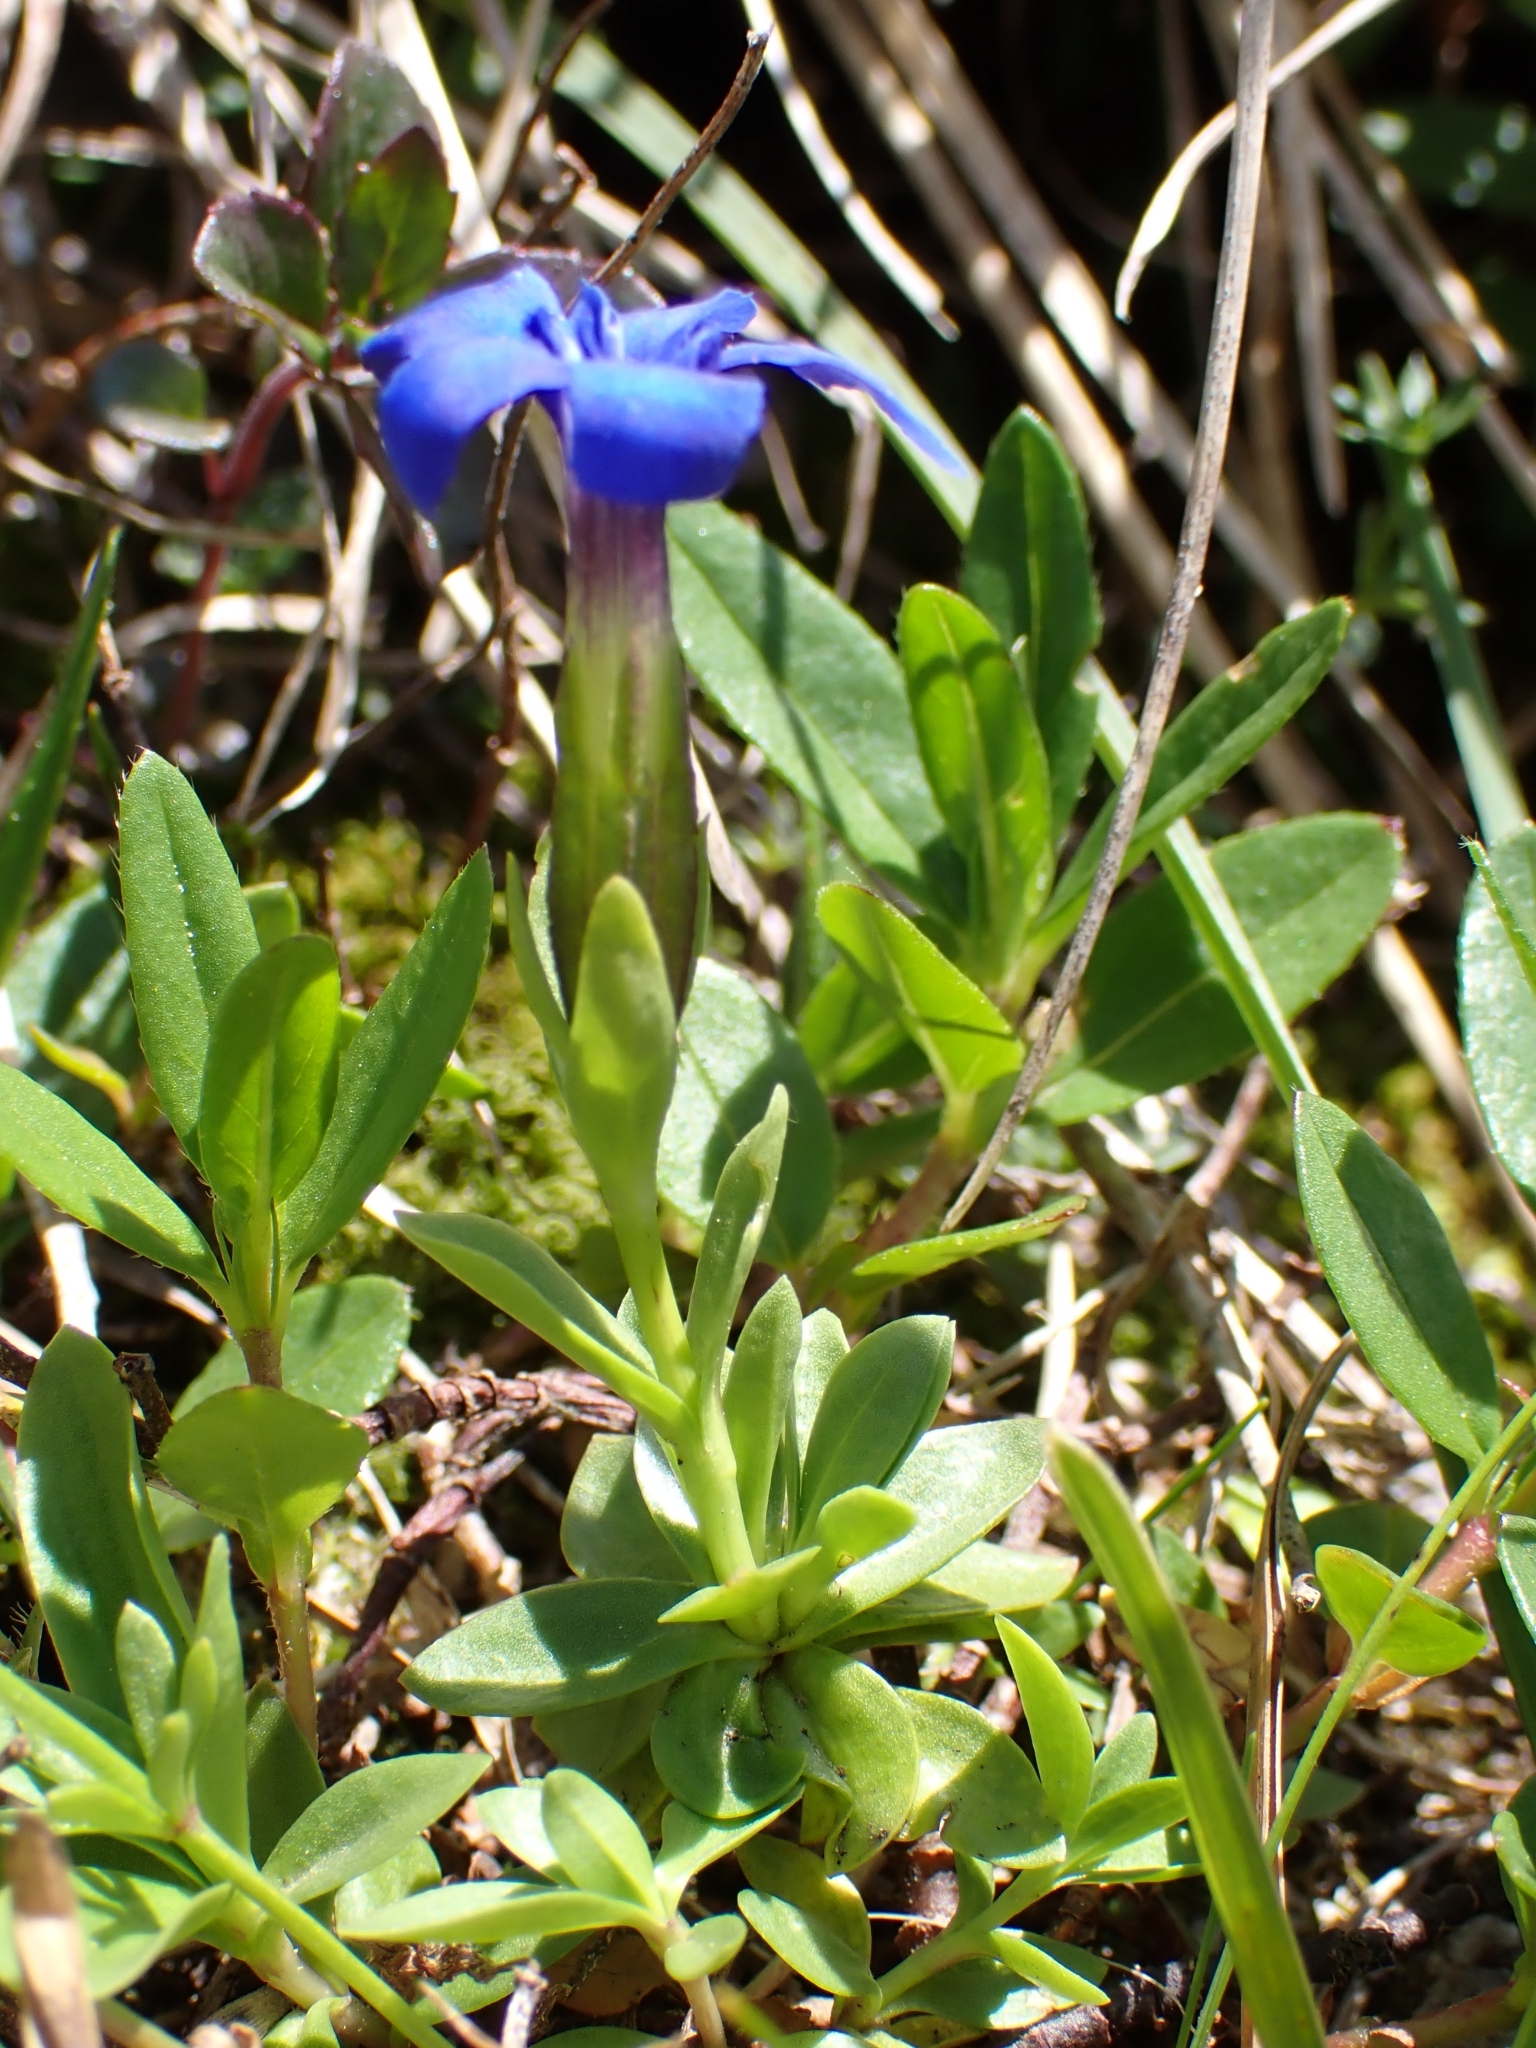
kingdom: Plantae
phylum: Tracheophyta
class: Magnoliopsida
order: Gentianales
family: Gentianaceae
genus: Gentiana
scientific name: Gentiana verna
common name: Spring gentian
